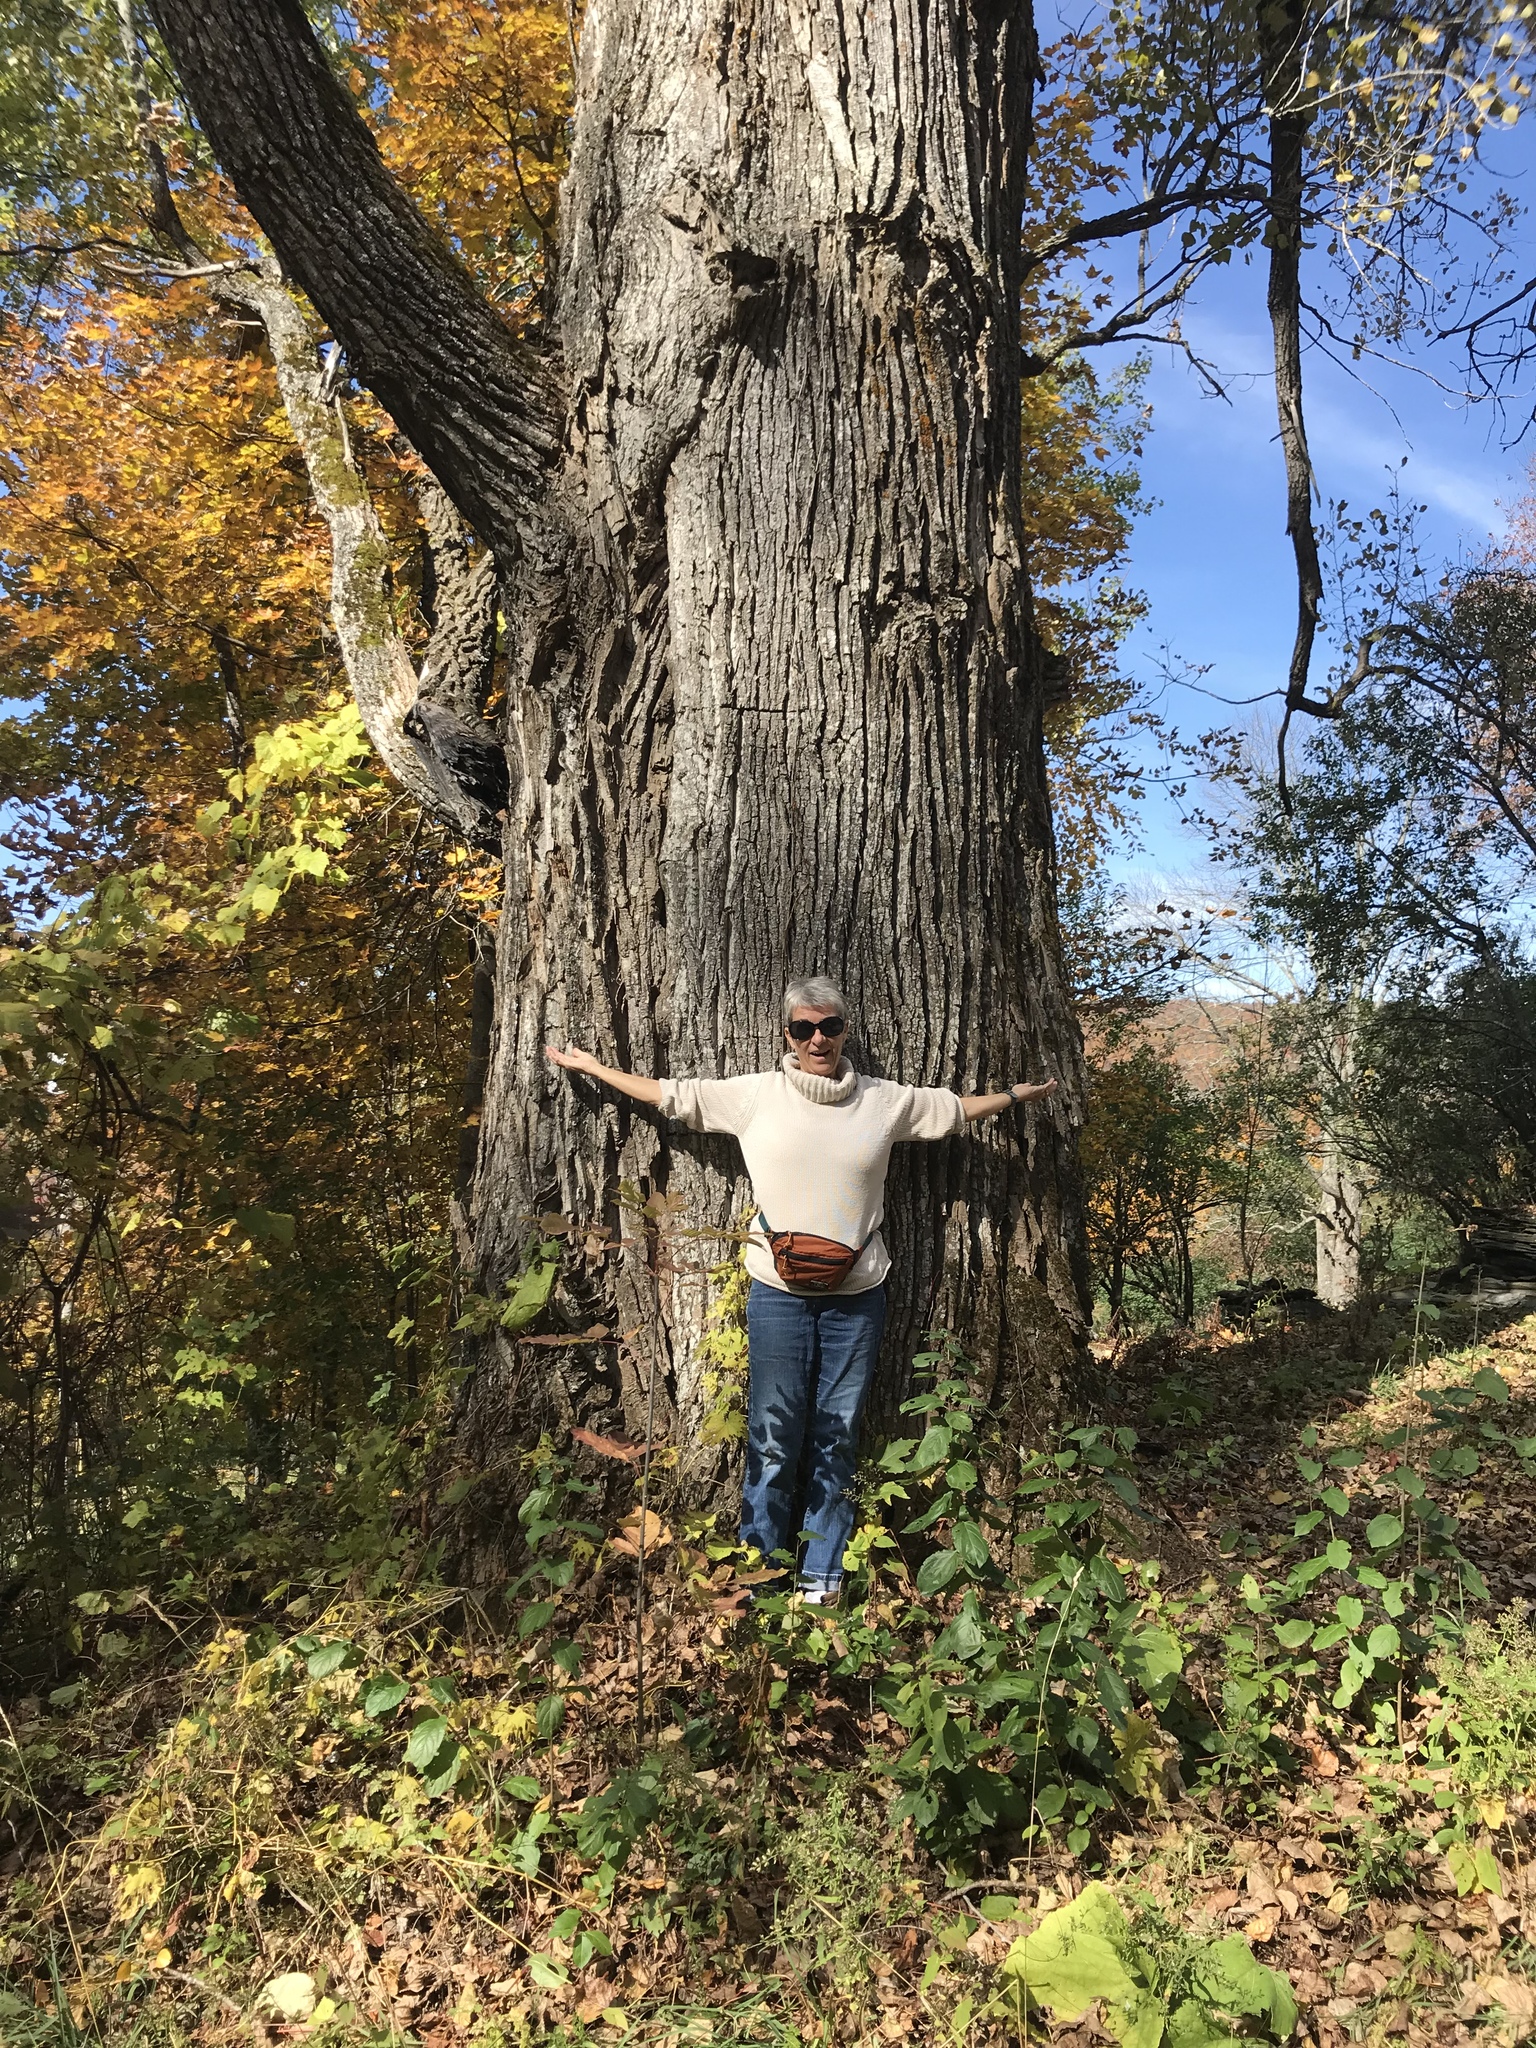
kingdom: Plantae
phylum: Tracheophyta
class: Magnoliopsida
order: Malpighiales
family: Salicaceae
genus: Populus
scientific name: Populus deltoides
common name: Eastern cottonwood
